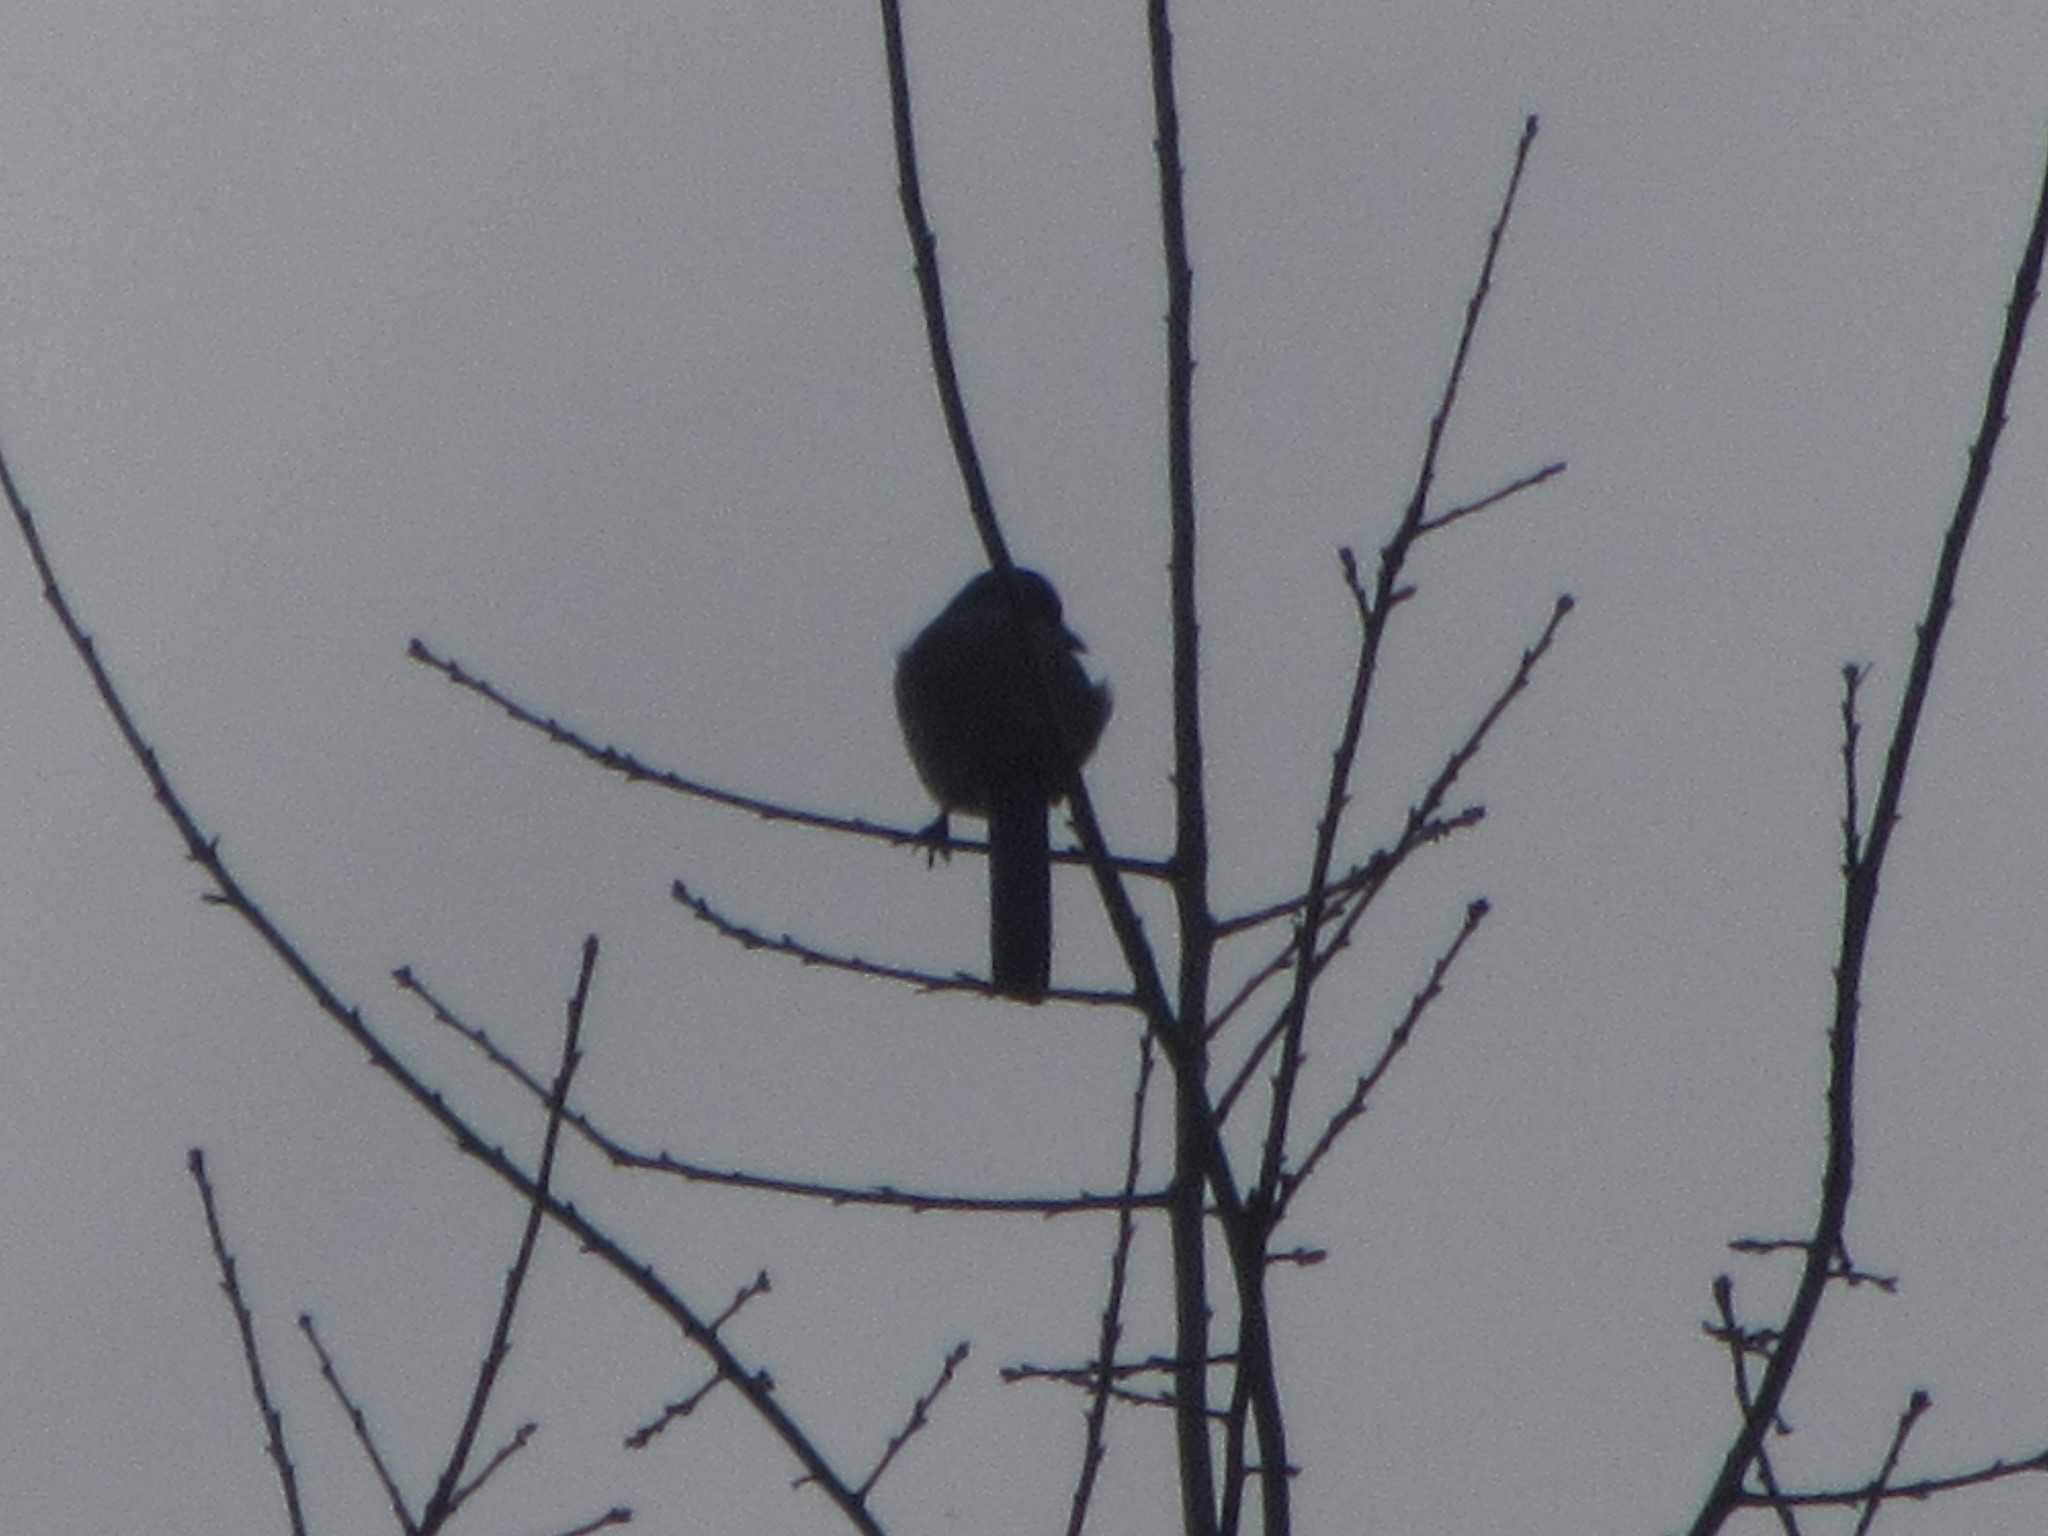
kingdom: Animalia
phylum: Chordata
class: Aves
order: Passeriformes
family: Corvidae
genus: Aphelocoma
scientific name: Aphelocoma californica
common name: California scrub-jay
